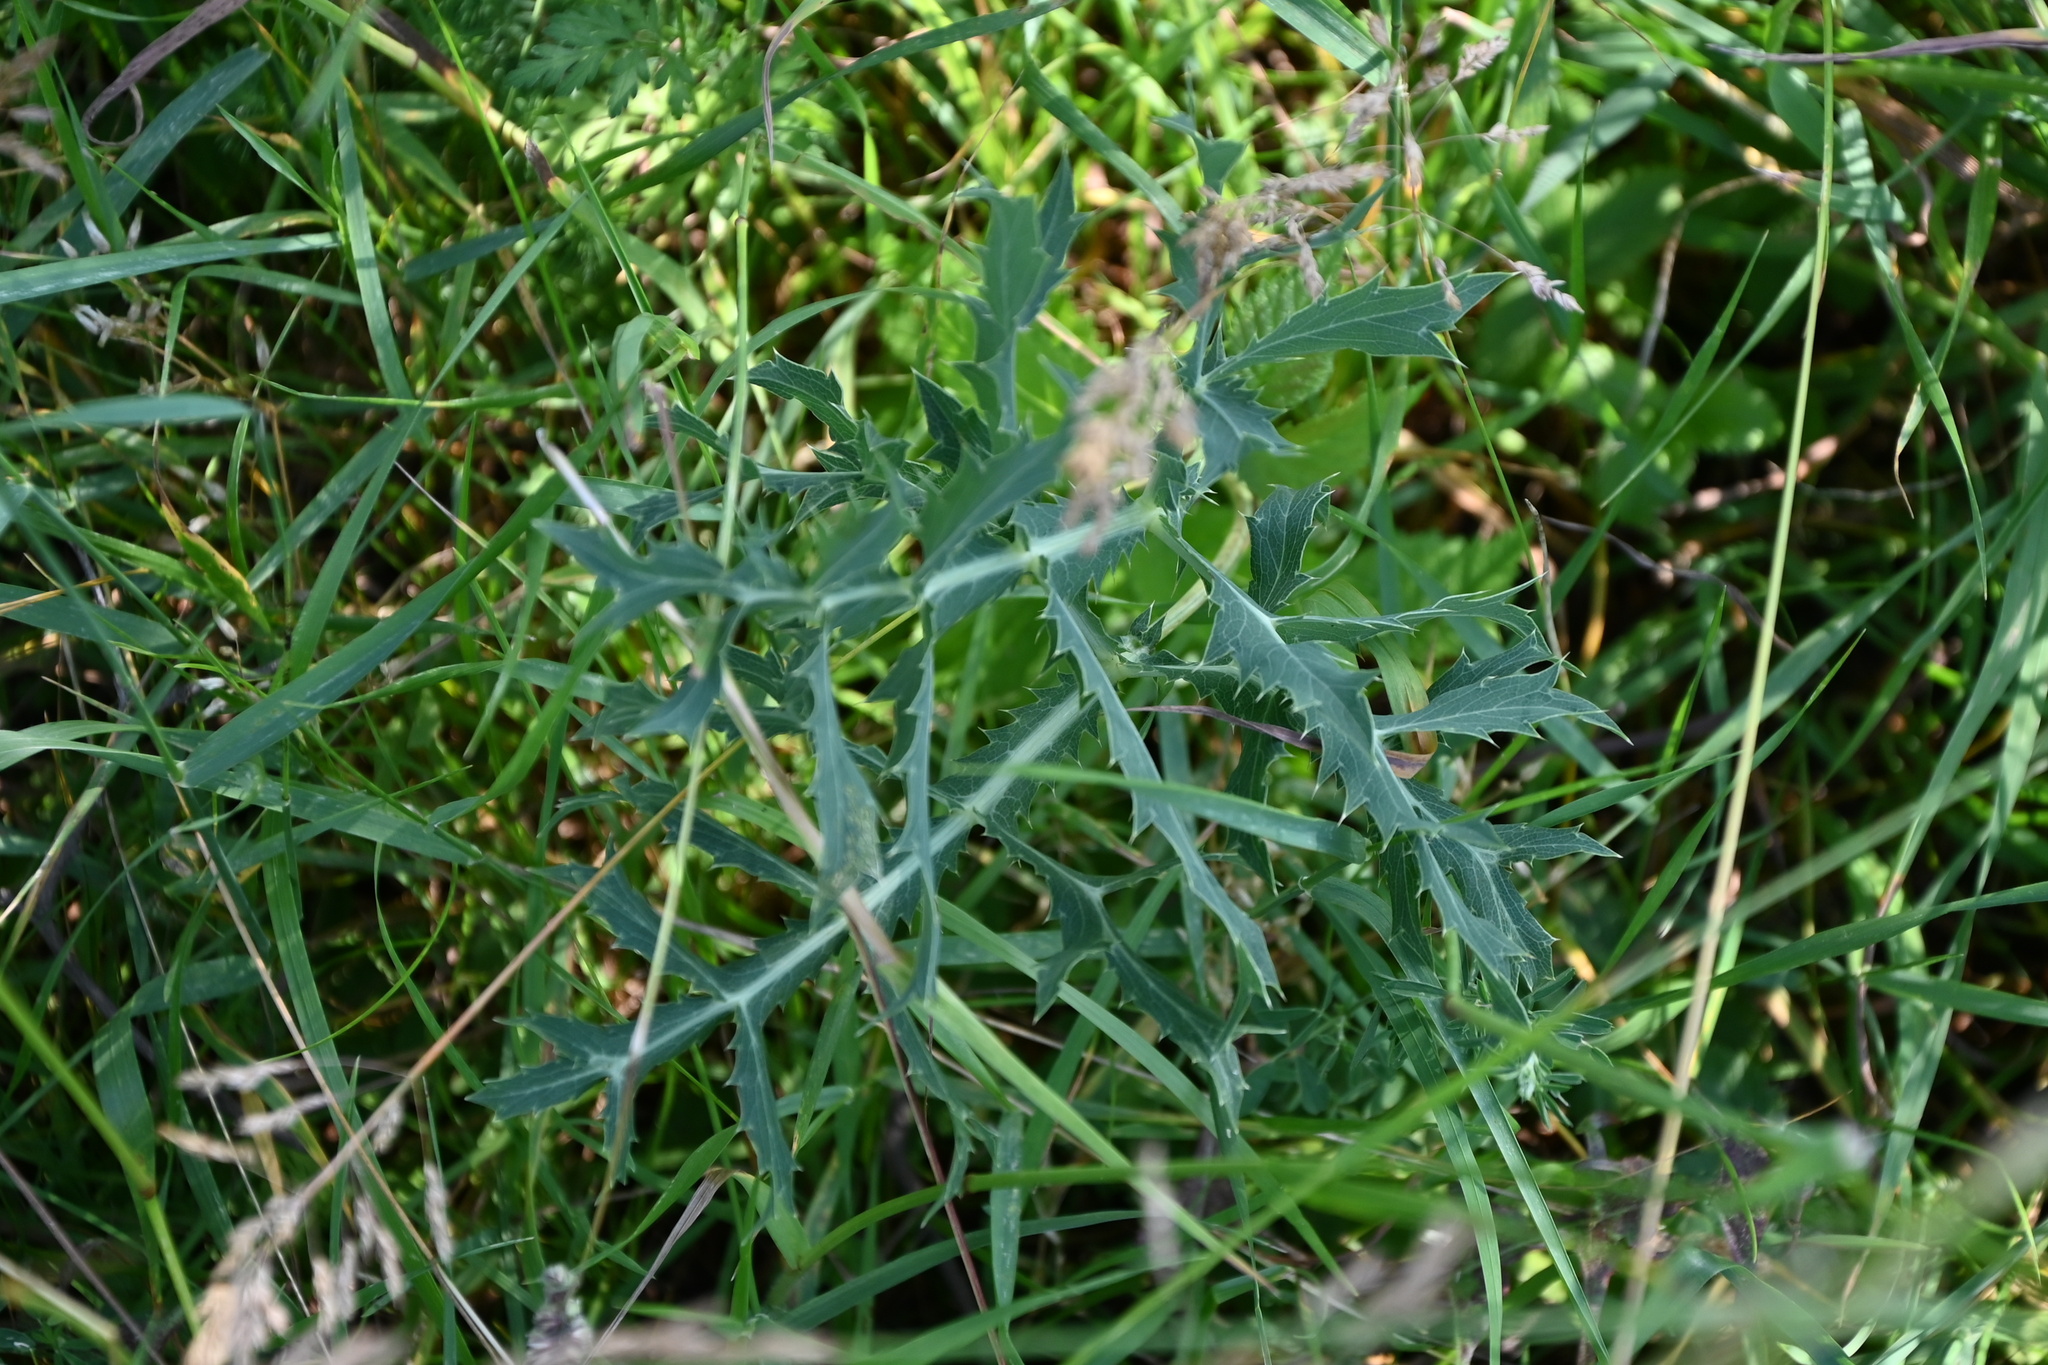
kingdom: Plantae
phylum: Tracheophyta
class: Magnoliopsida
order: Apiales
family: Apiaceae
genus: Eryngium
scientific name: Eryngium campestre
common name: Field eryngo
